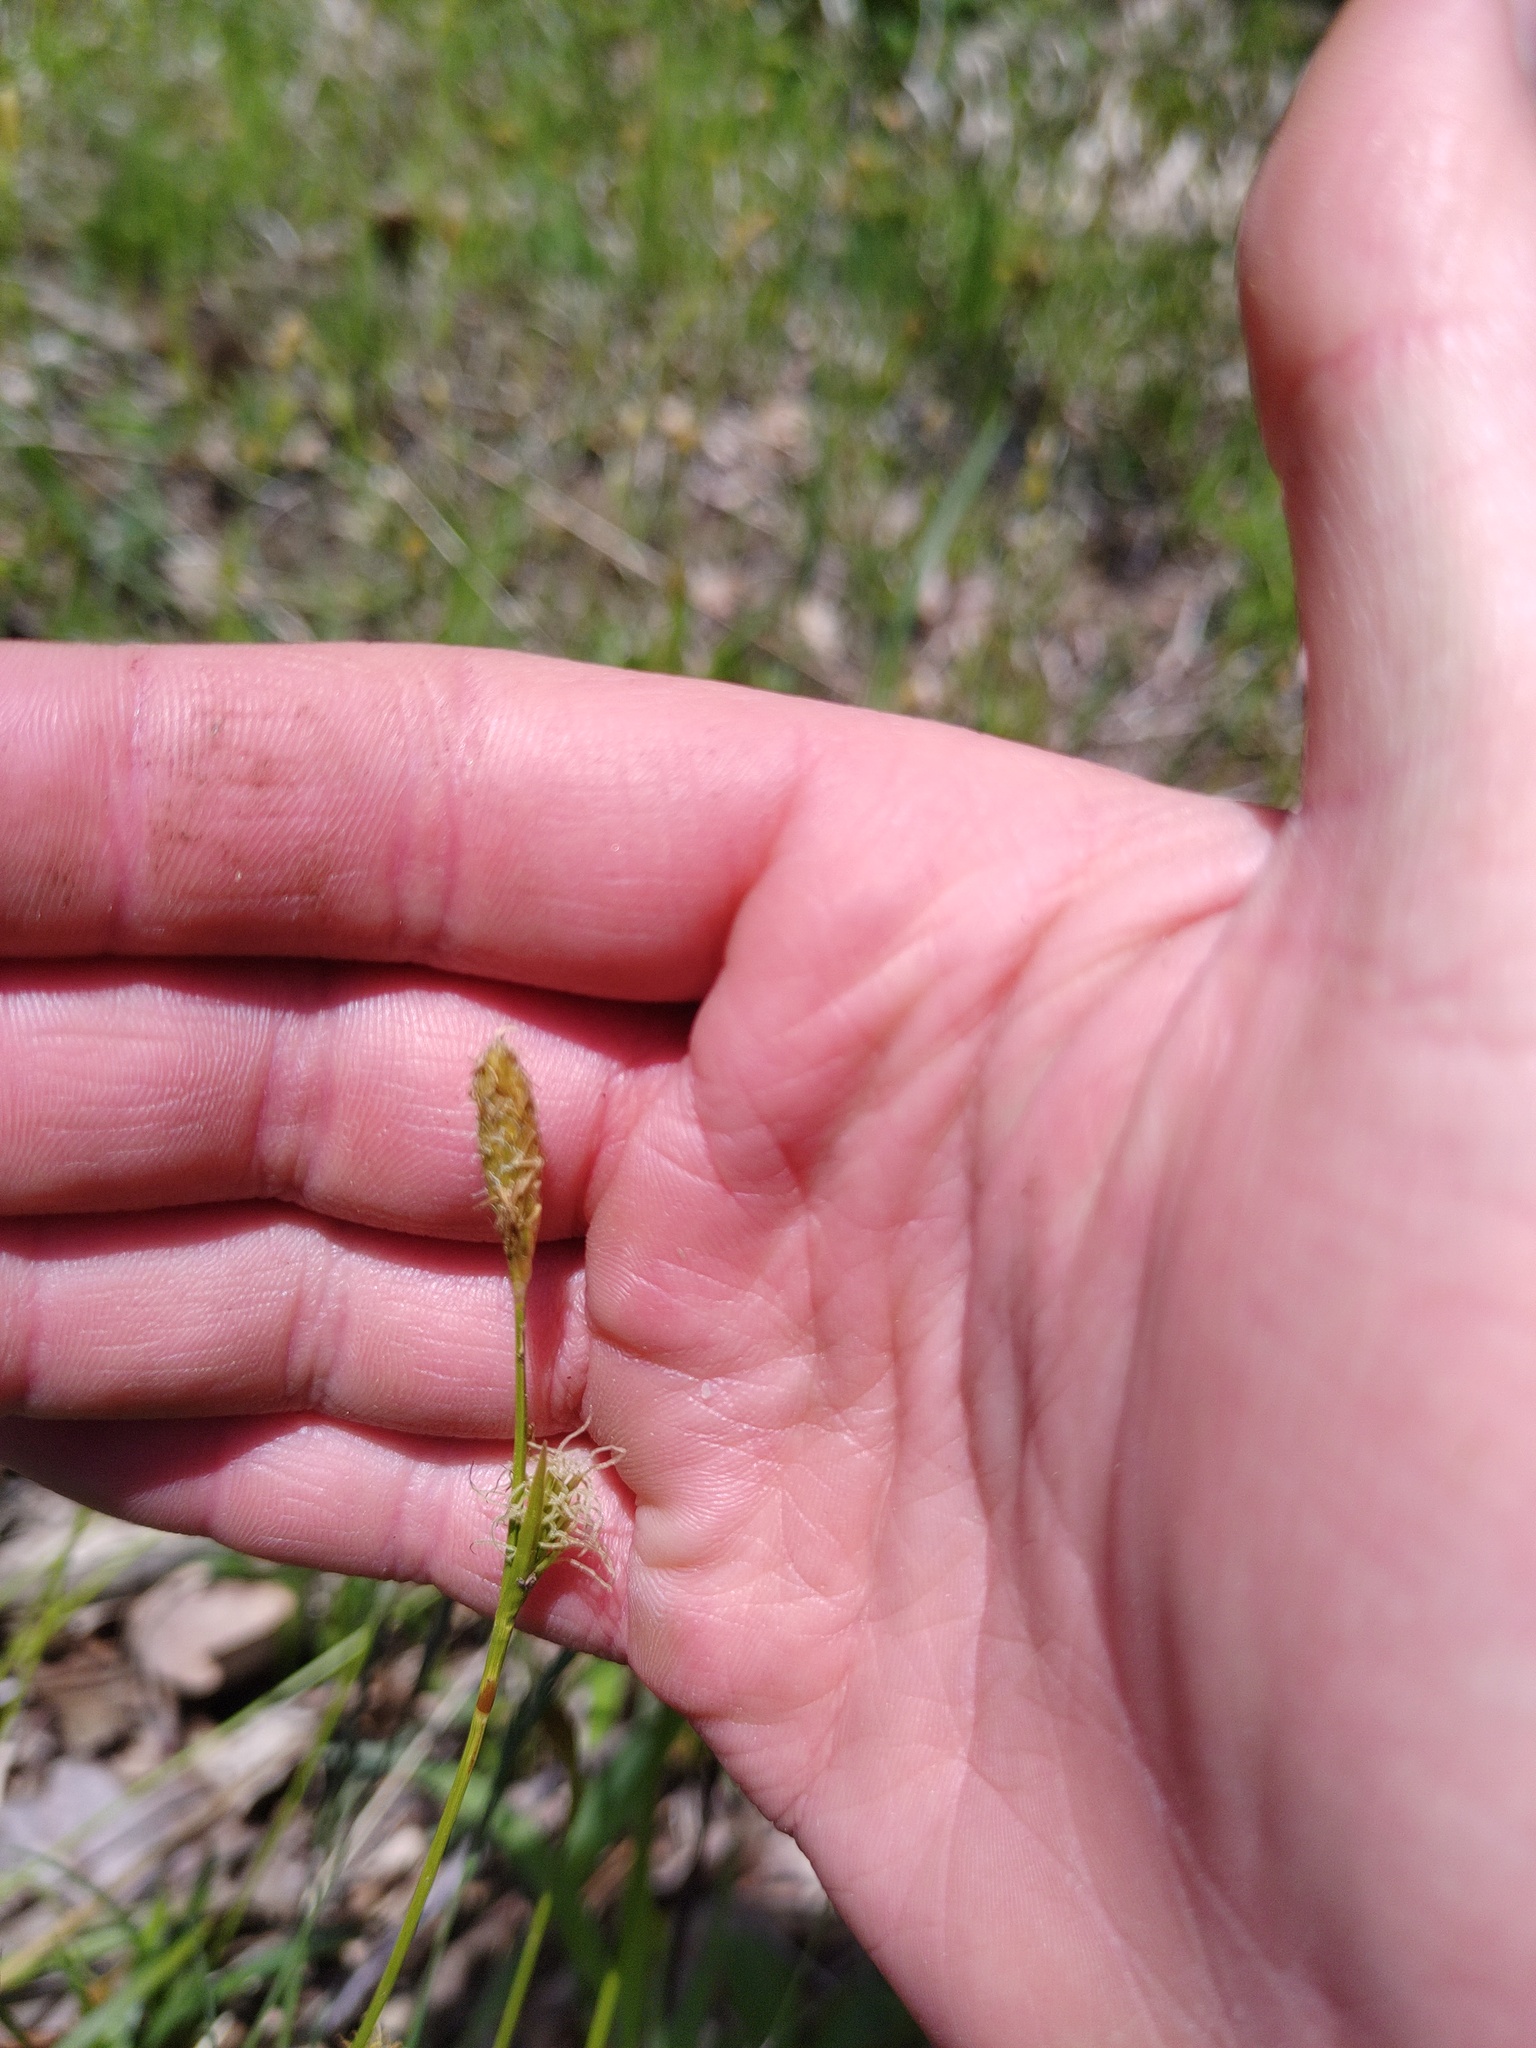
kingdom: Plantae
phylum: Tracheophyta
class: Liliopsida
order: Poales
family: Cyperaceae
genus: Carex
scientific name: Carex michelii
